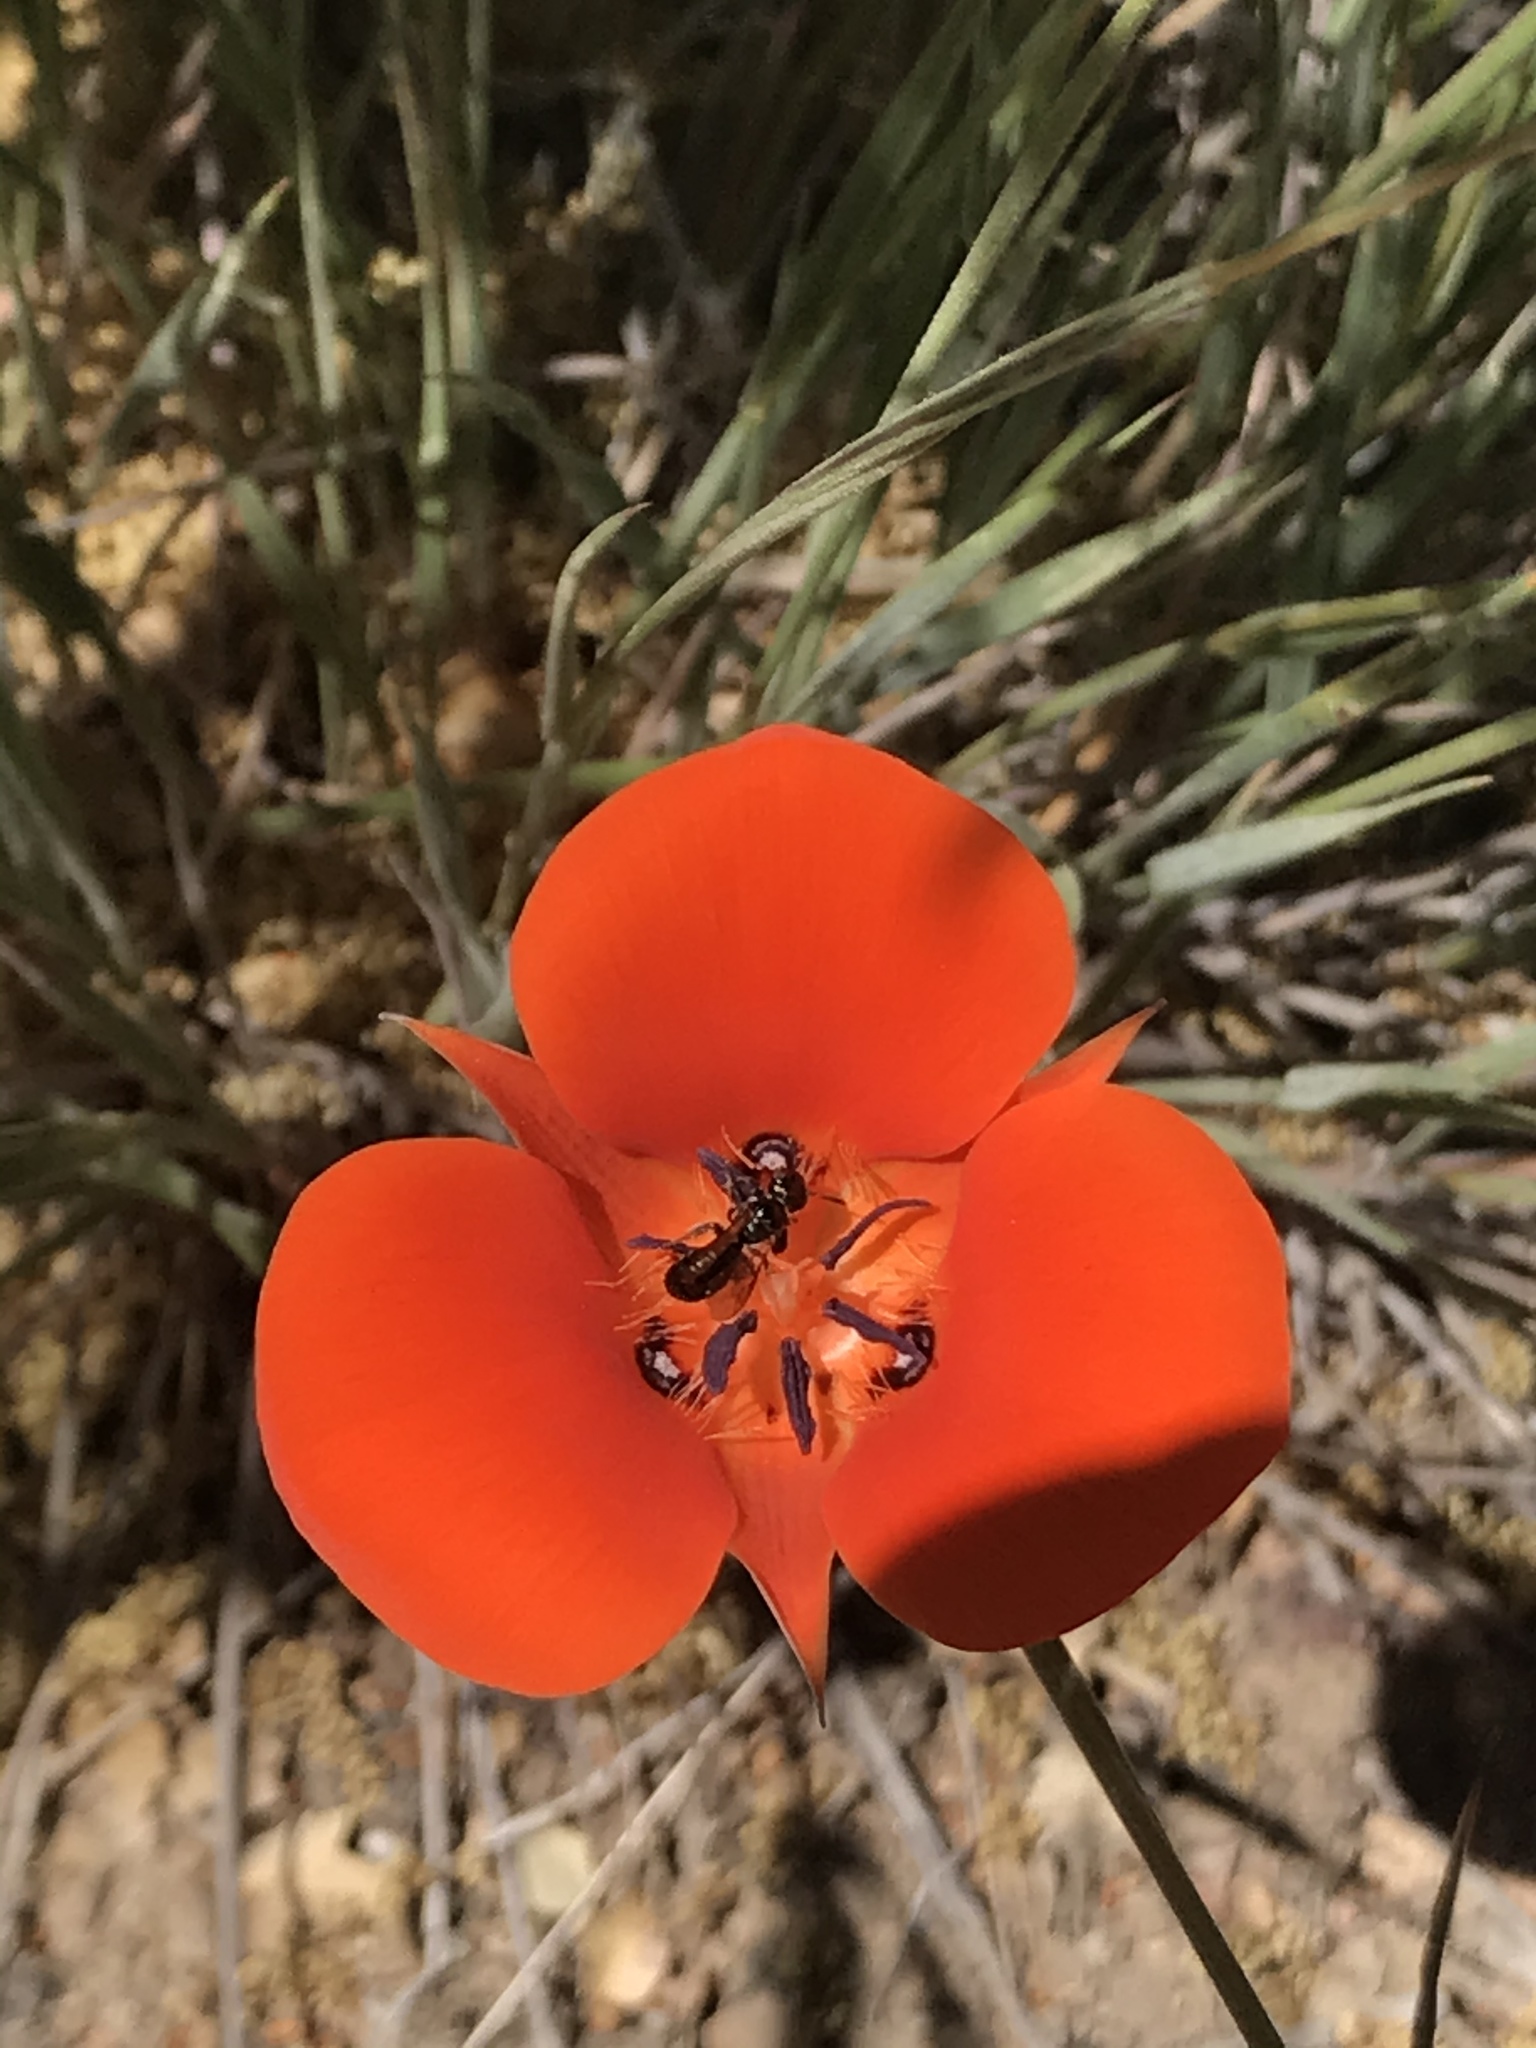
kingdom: Plantae
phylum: Tracheophyta
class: Liliopsida
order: Liliales
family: Liliaceae
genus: Calochortus
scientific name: Calochortus kennedyi
